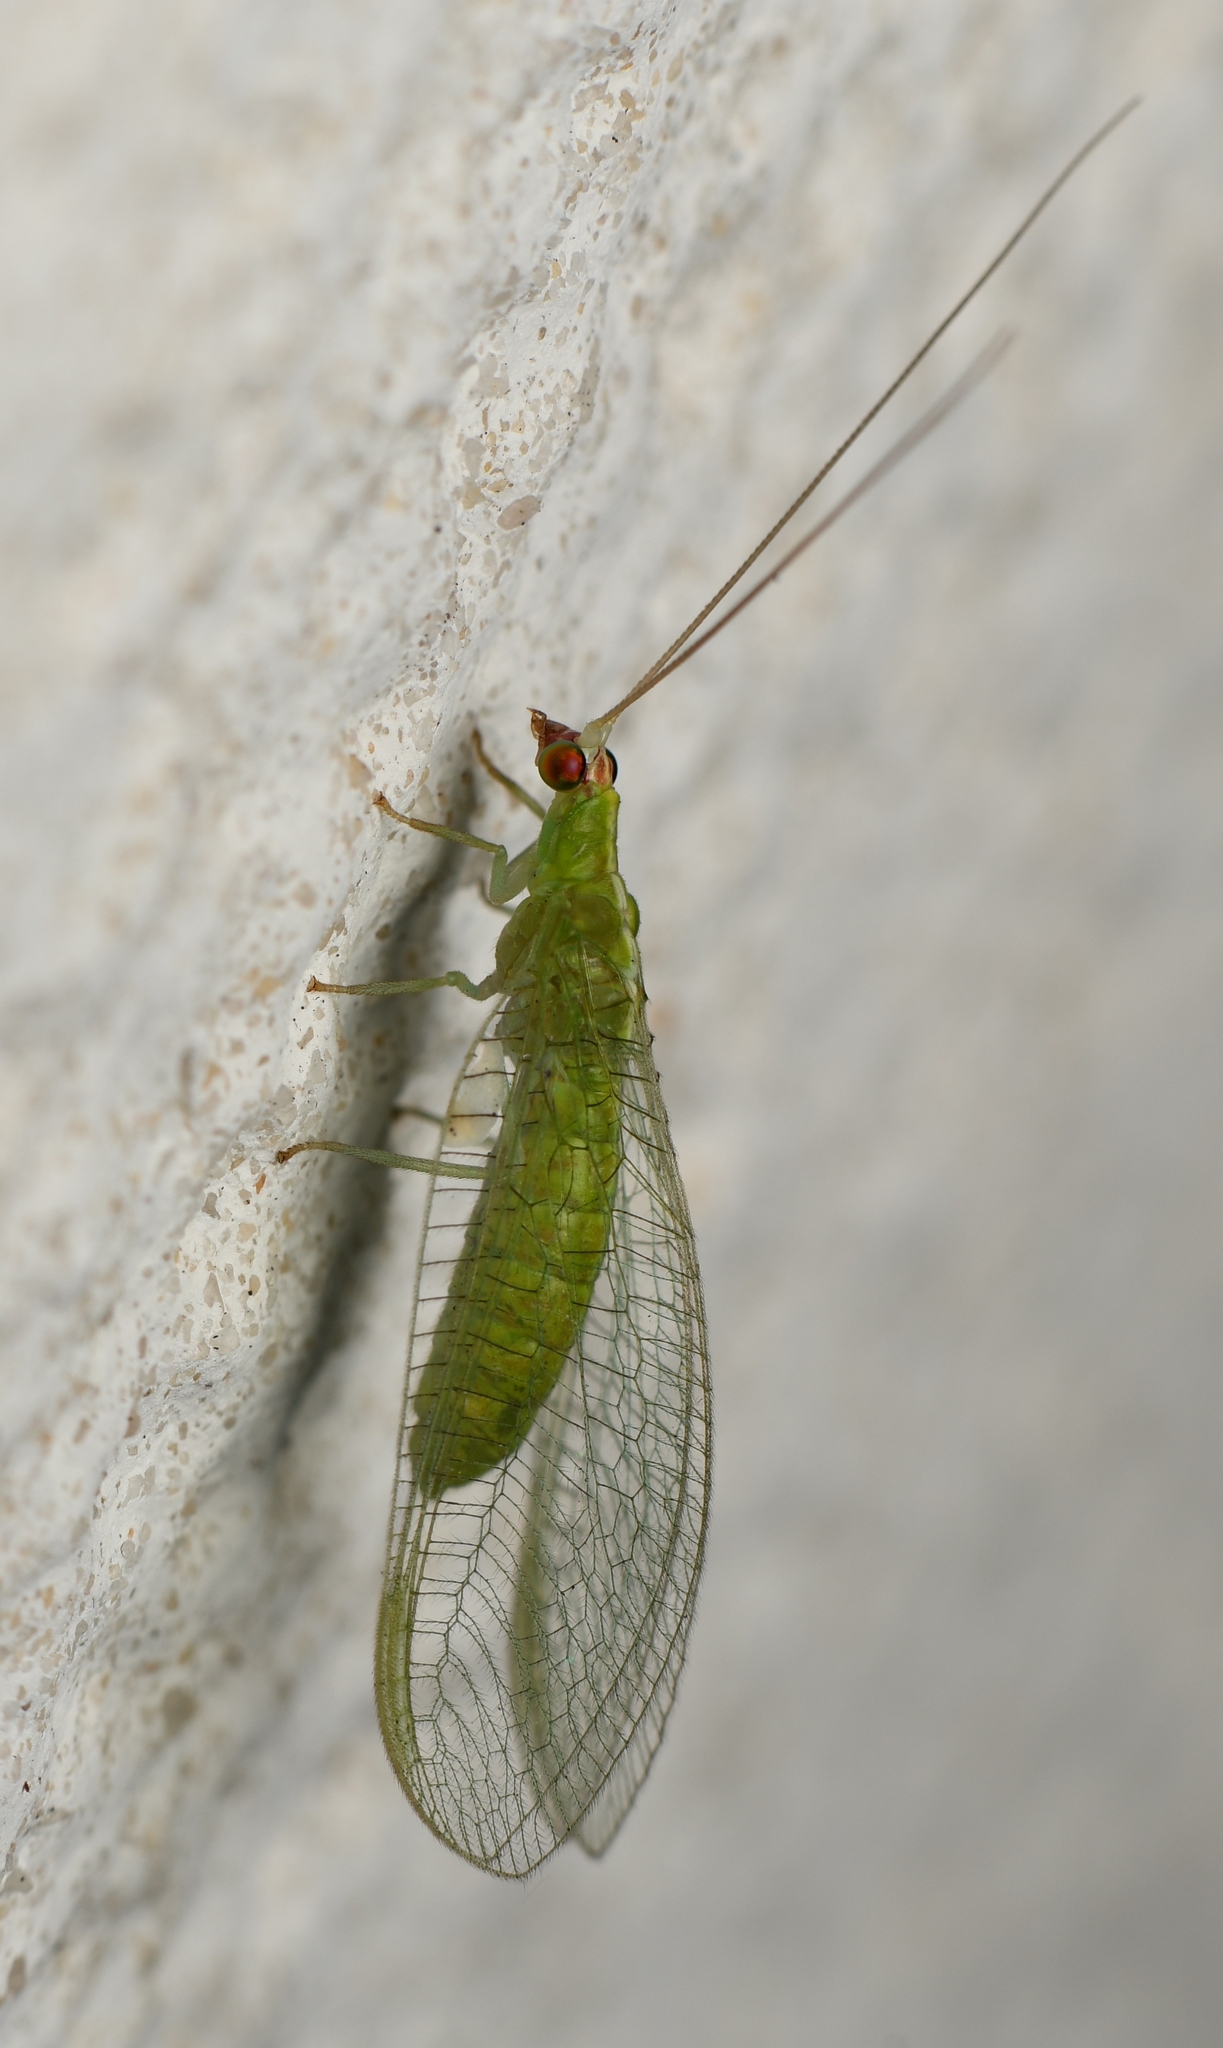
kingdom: Animalia
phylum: Arthropoda
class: Insecta
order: Neuroptera
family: Chrysopidae
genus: Chrysopodes
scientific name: Chrysopodes collaris
